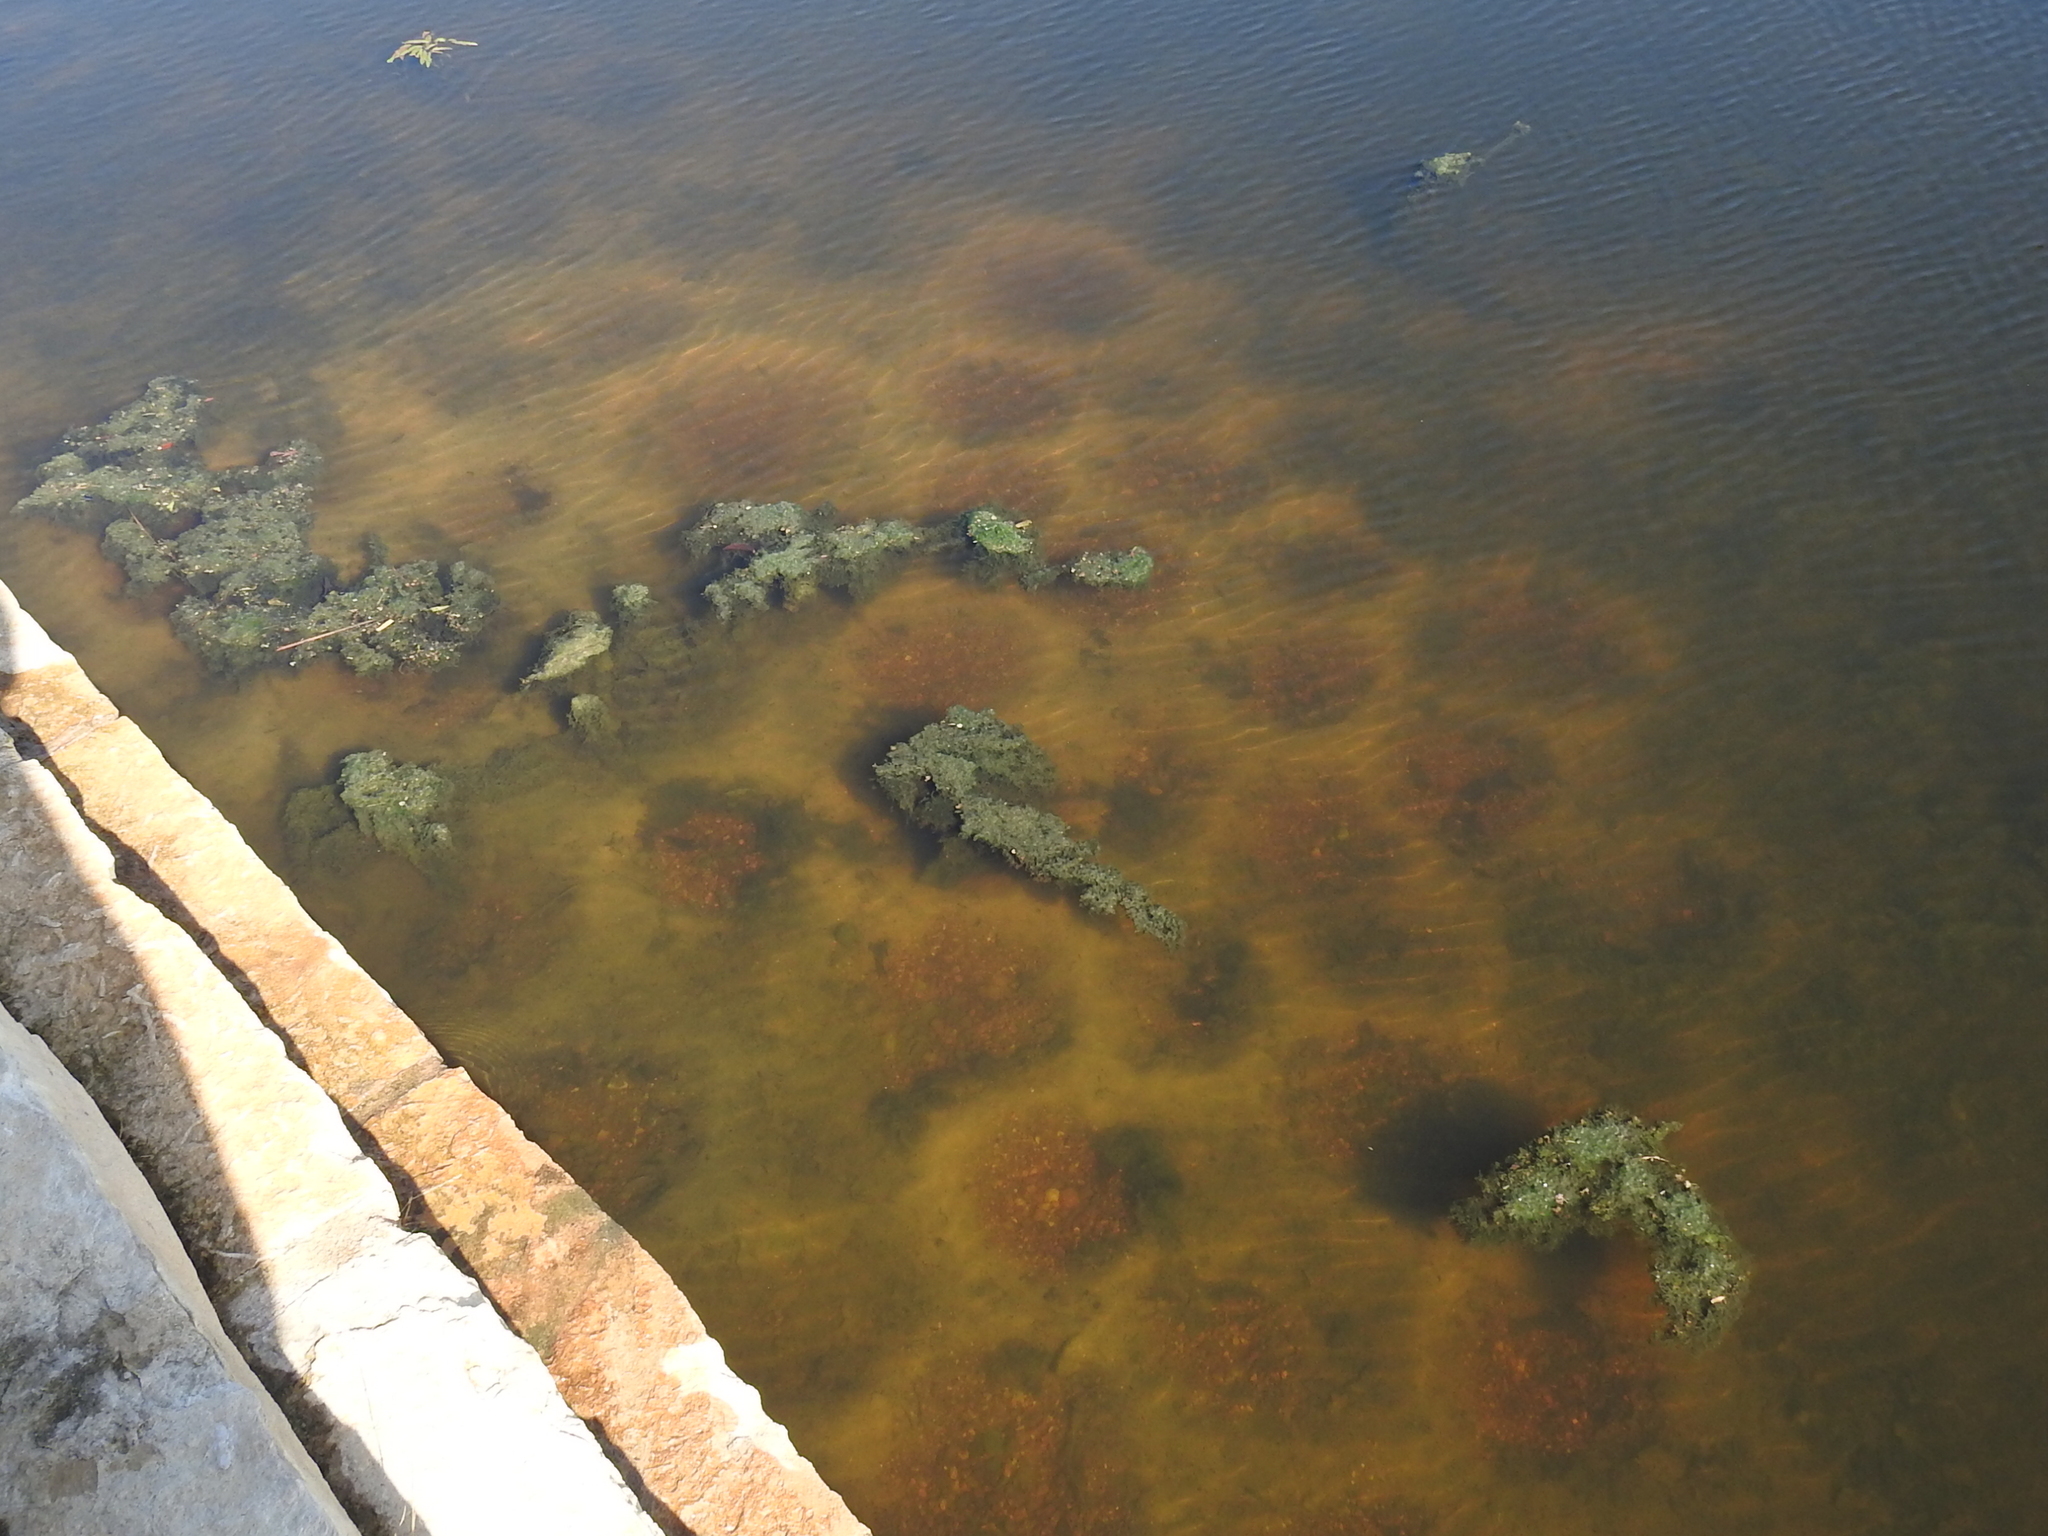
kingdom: Animalia
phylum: Chordata
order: Perciformes
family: Centrarchidae
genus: Lepomis
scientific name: Lepomis
